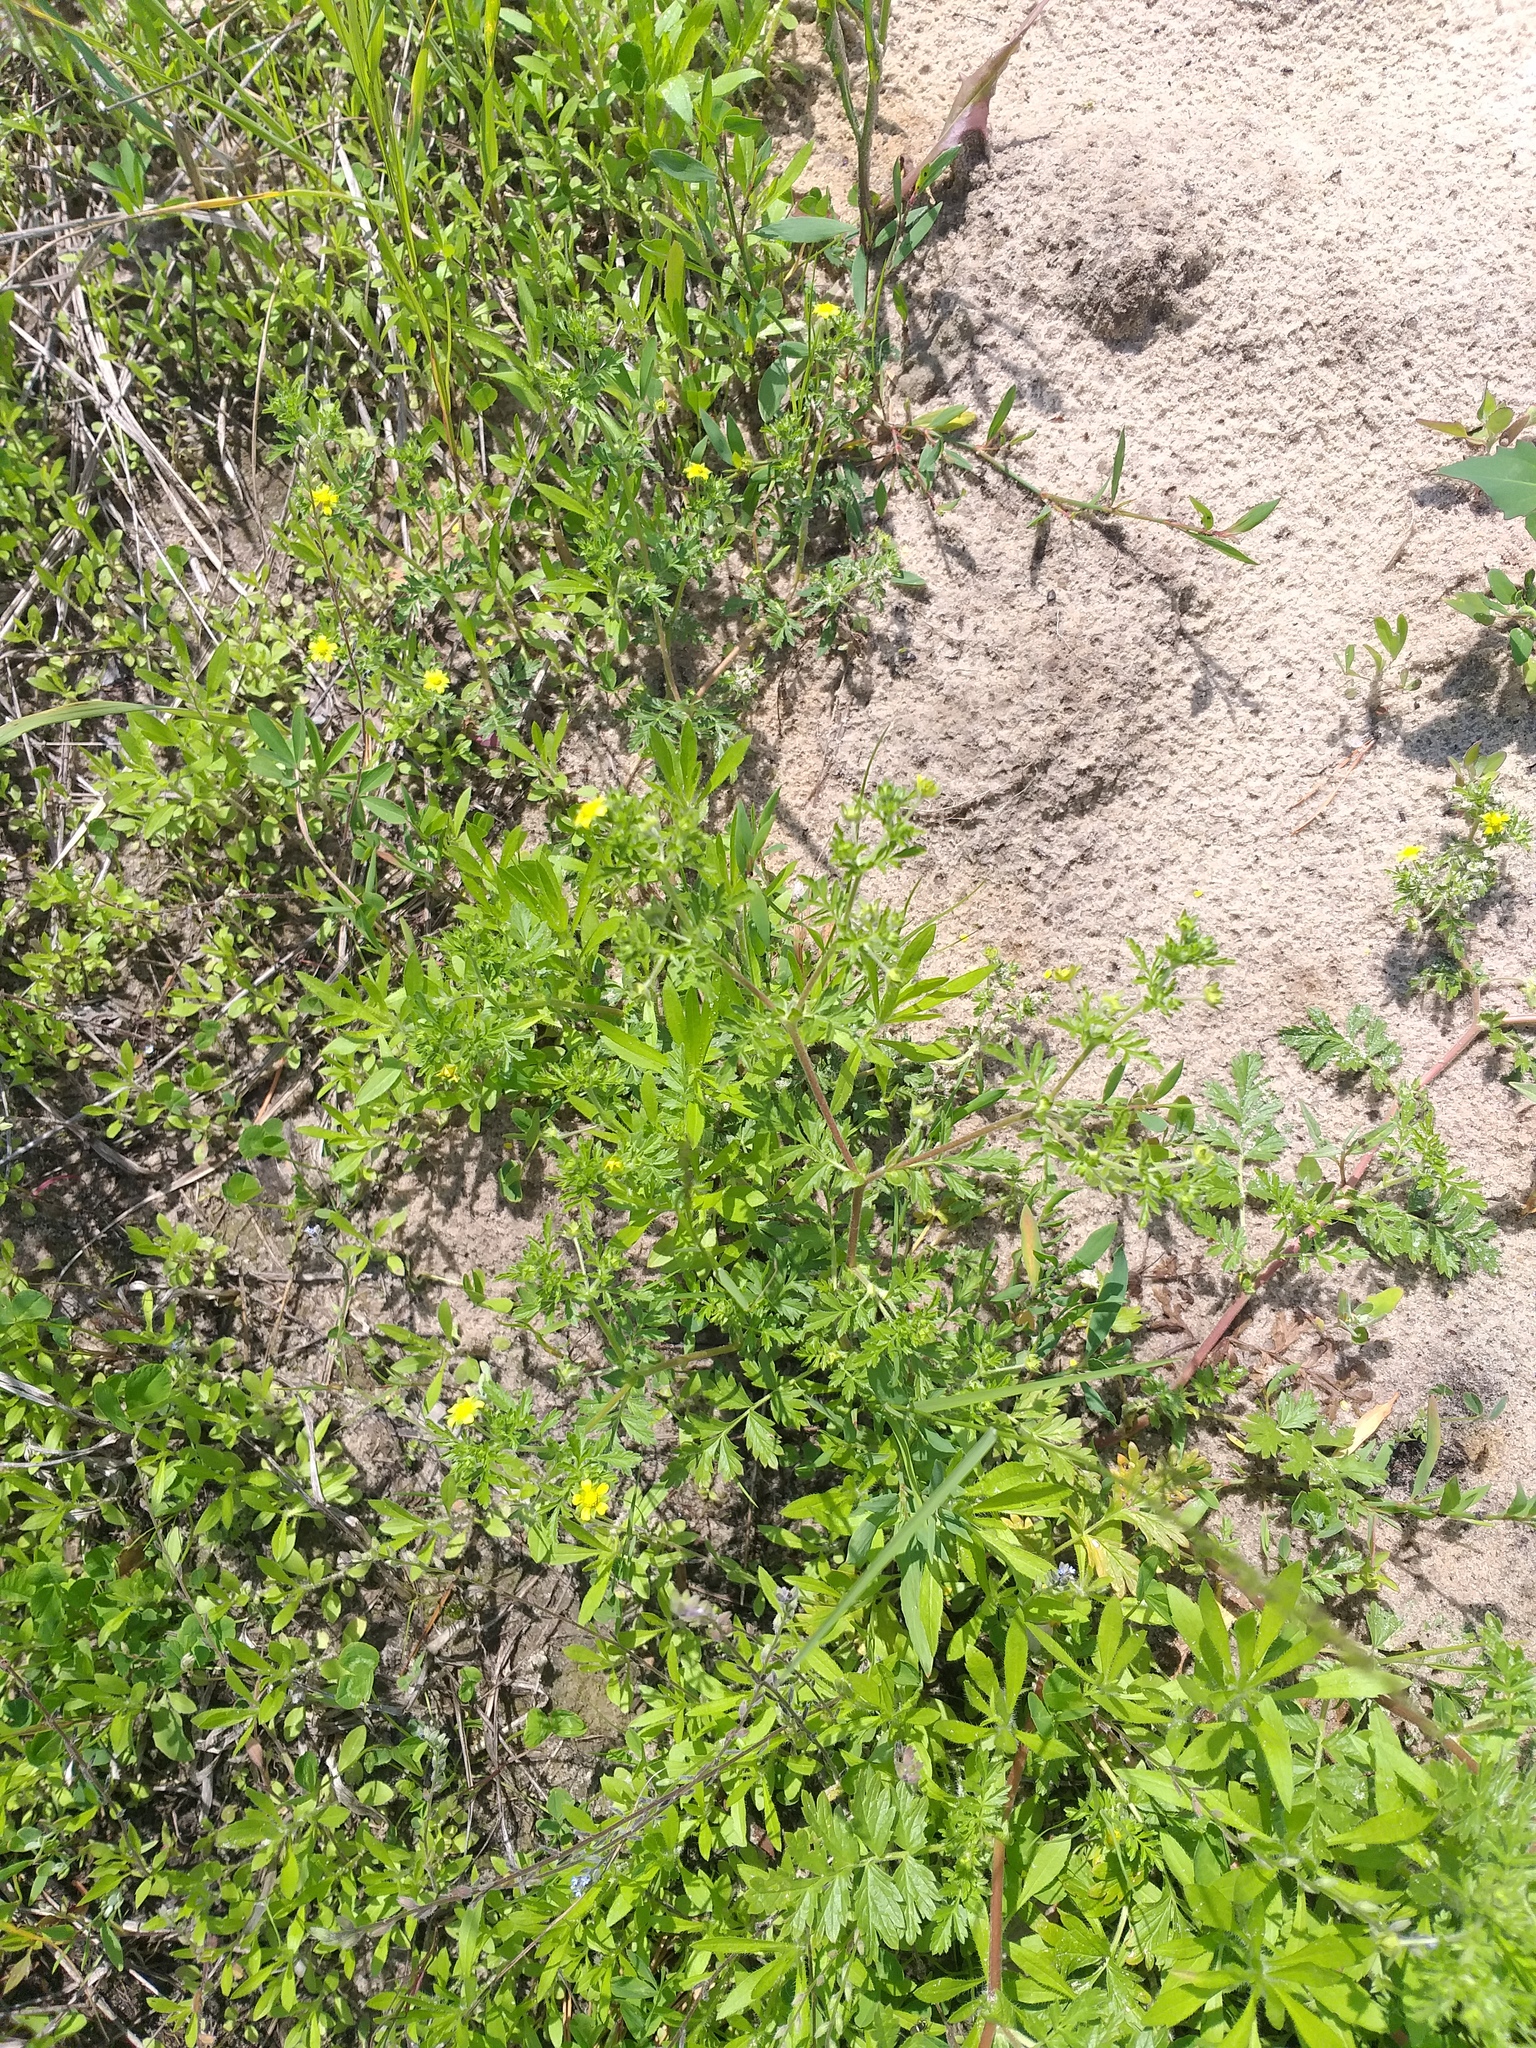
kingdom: Plantae
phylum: Tracheophyta
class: Magnoliopsida
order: Rosales
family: Rosaceae
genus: Potentilla
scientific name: Potentilla supina
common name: Prostrate cinquefoil
